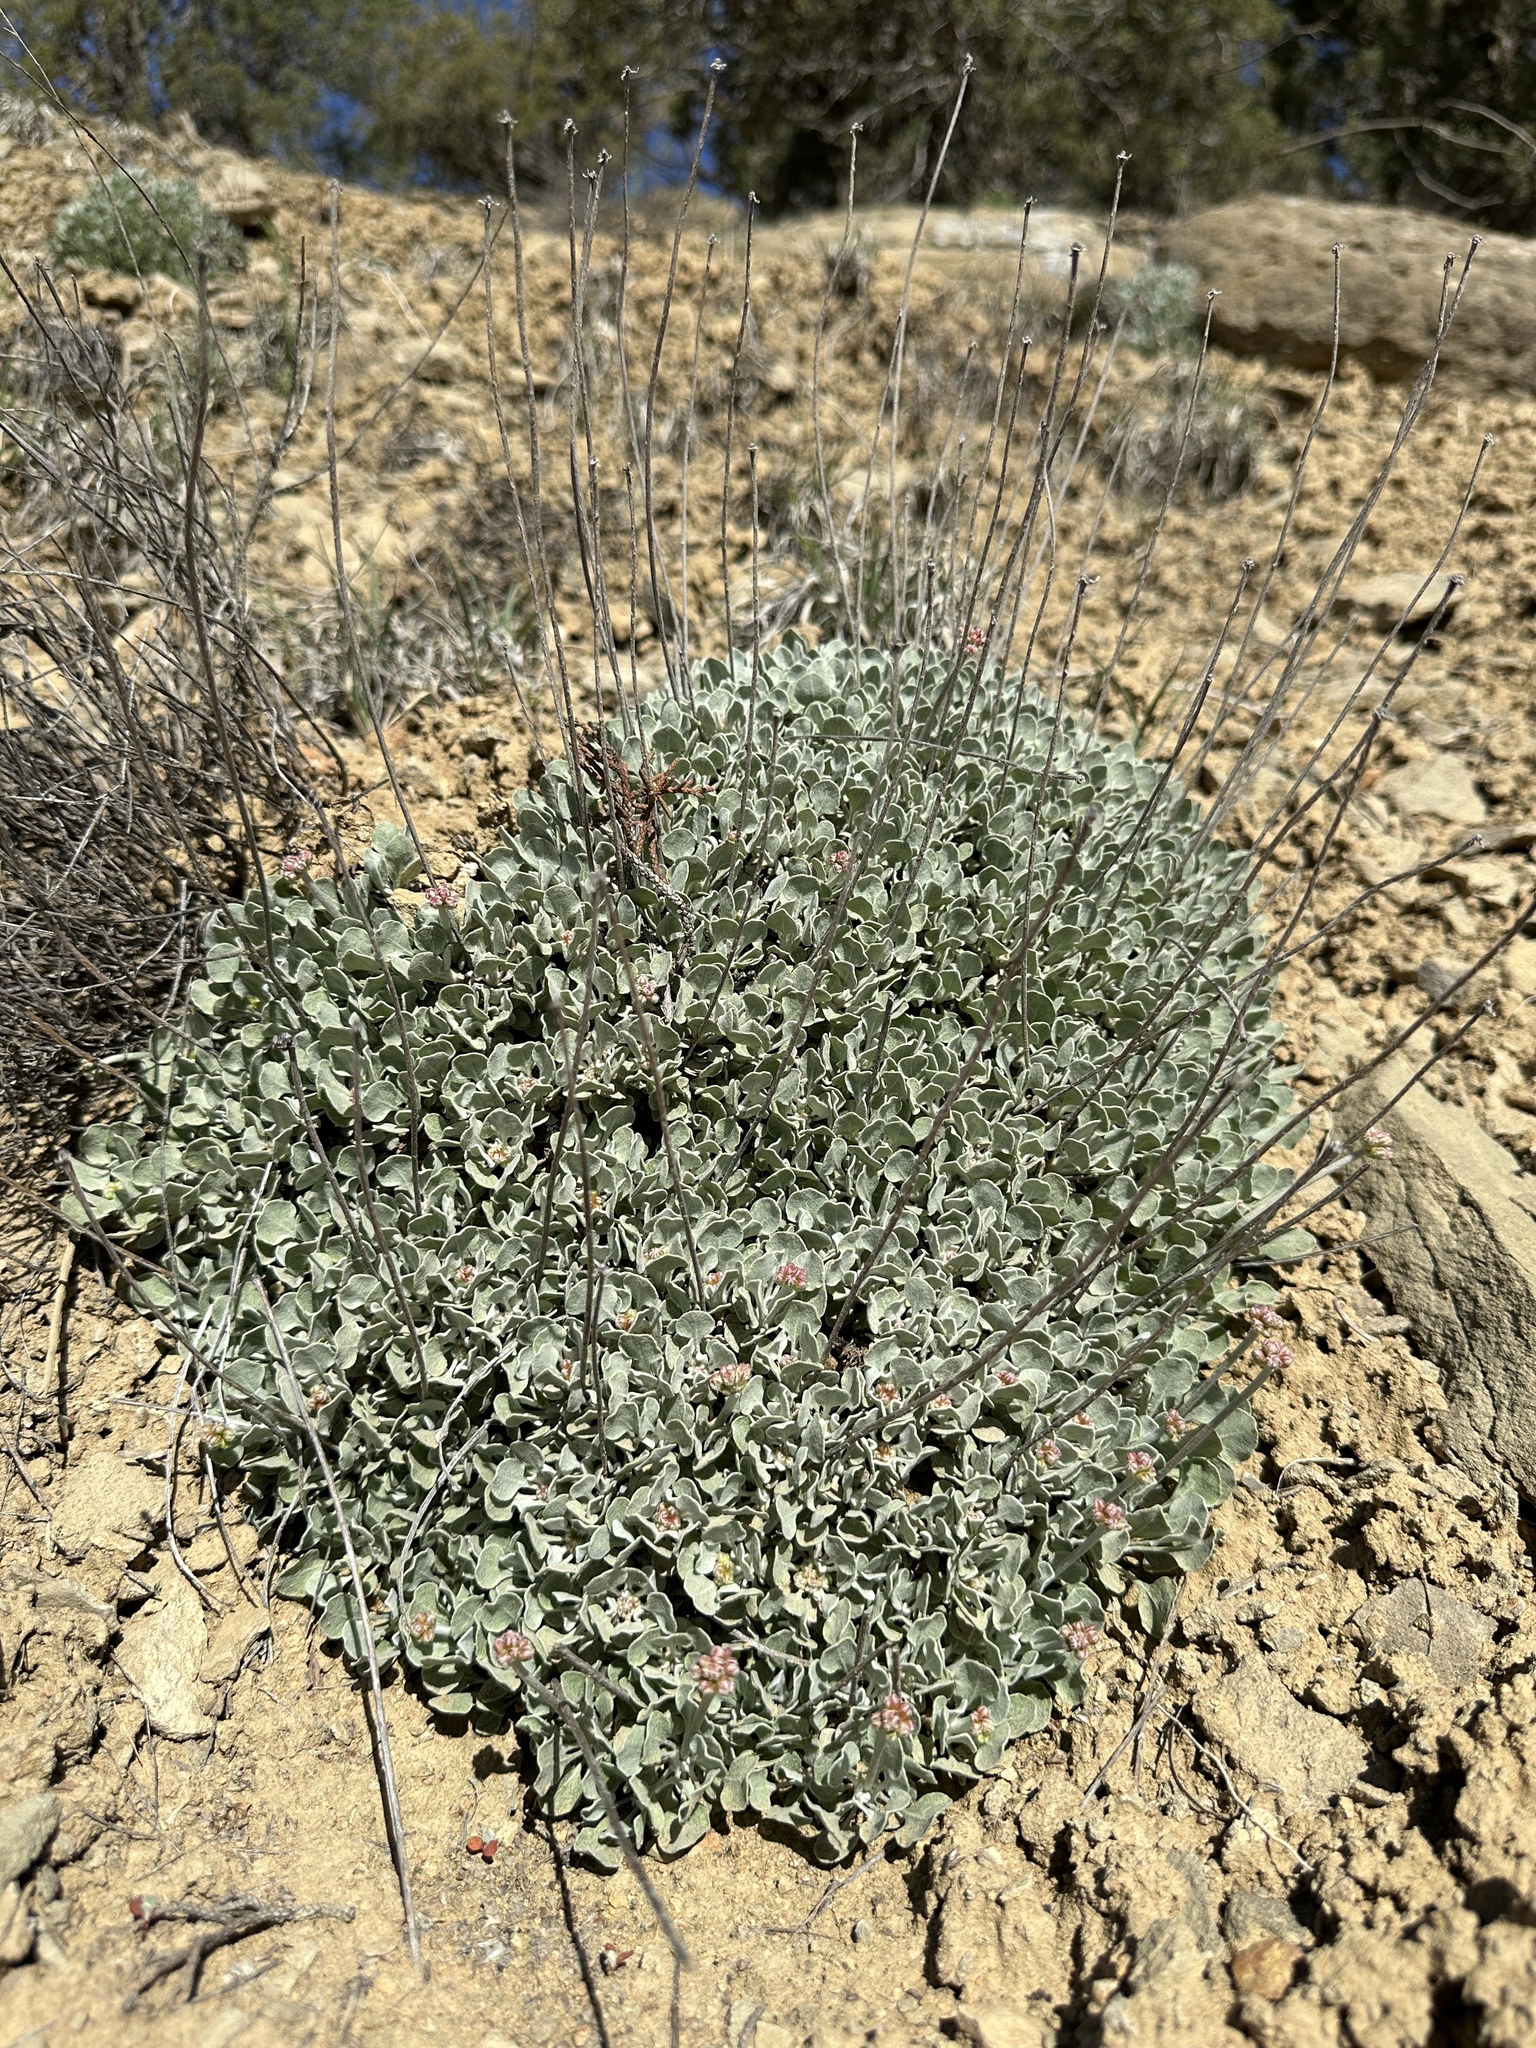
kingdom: Plantae
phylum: Tracheophyta
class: Magnoliopsida
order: Caryophyllales
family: Polygonaceae
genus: Eriogonum
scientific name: Eriogonum ovalifolium
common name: Cushion buckwheat
